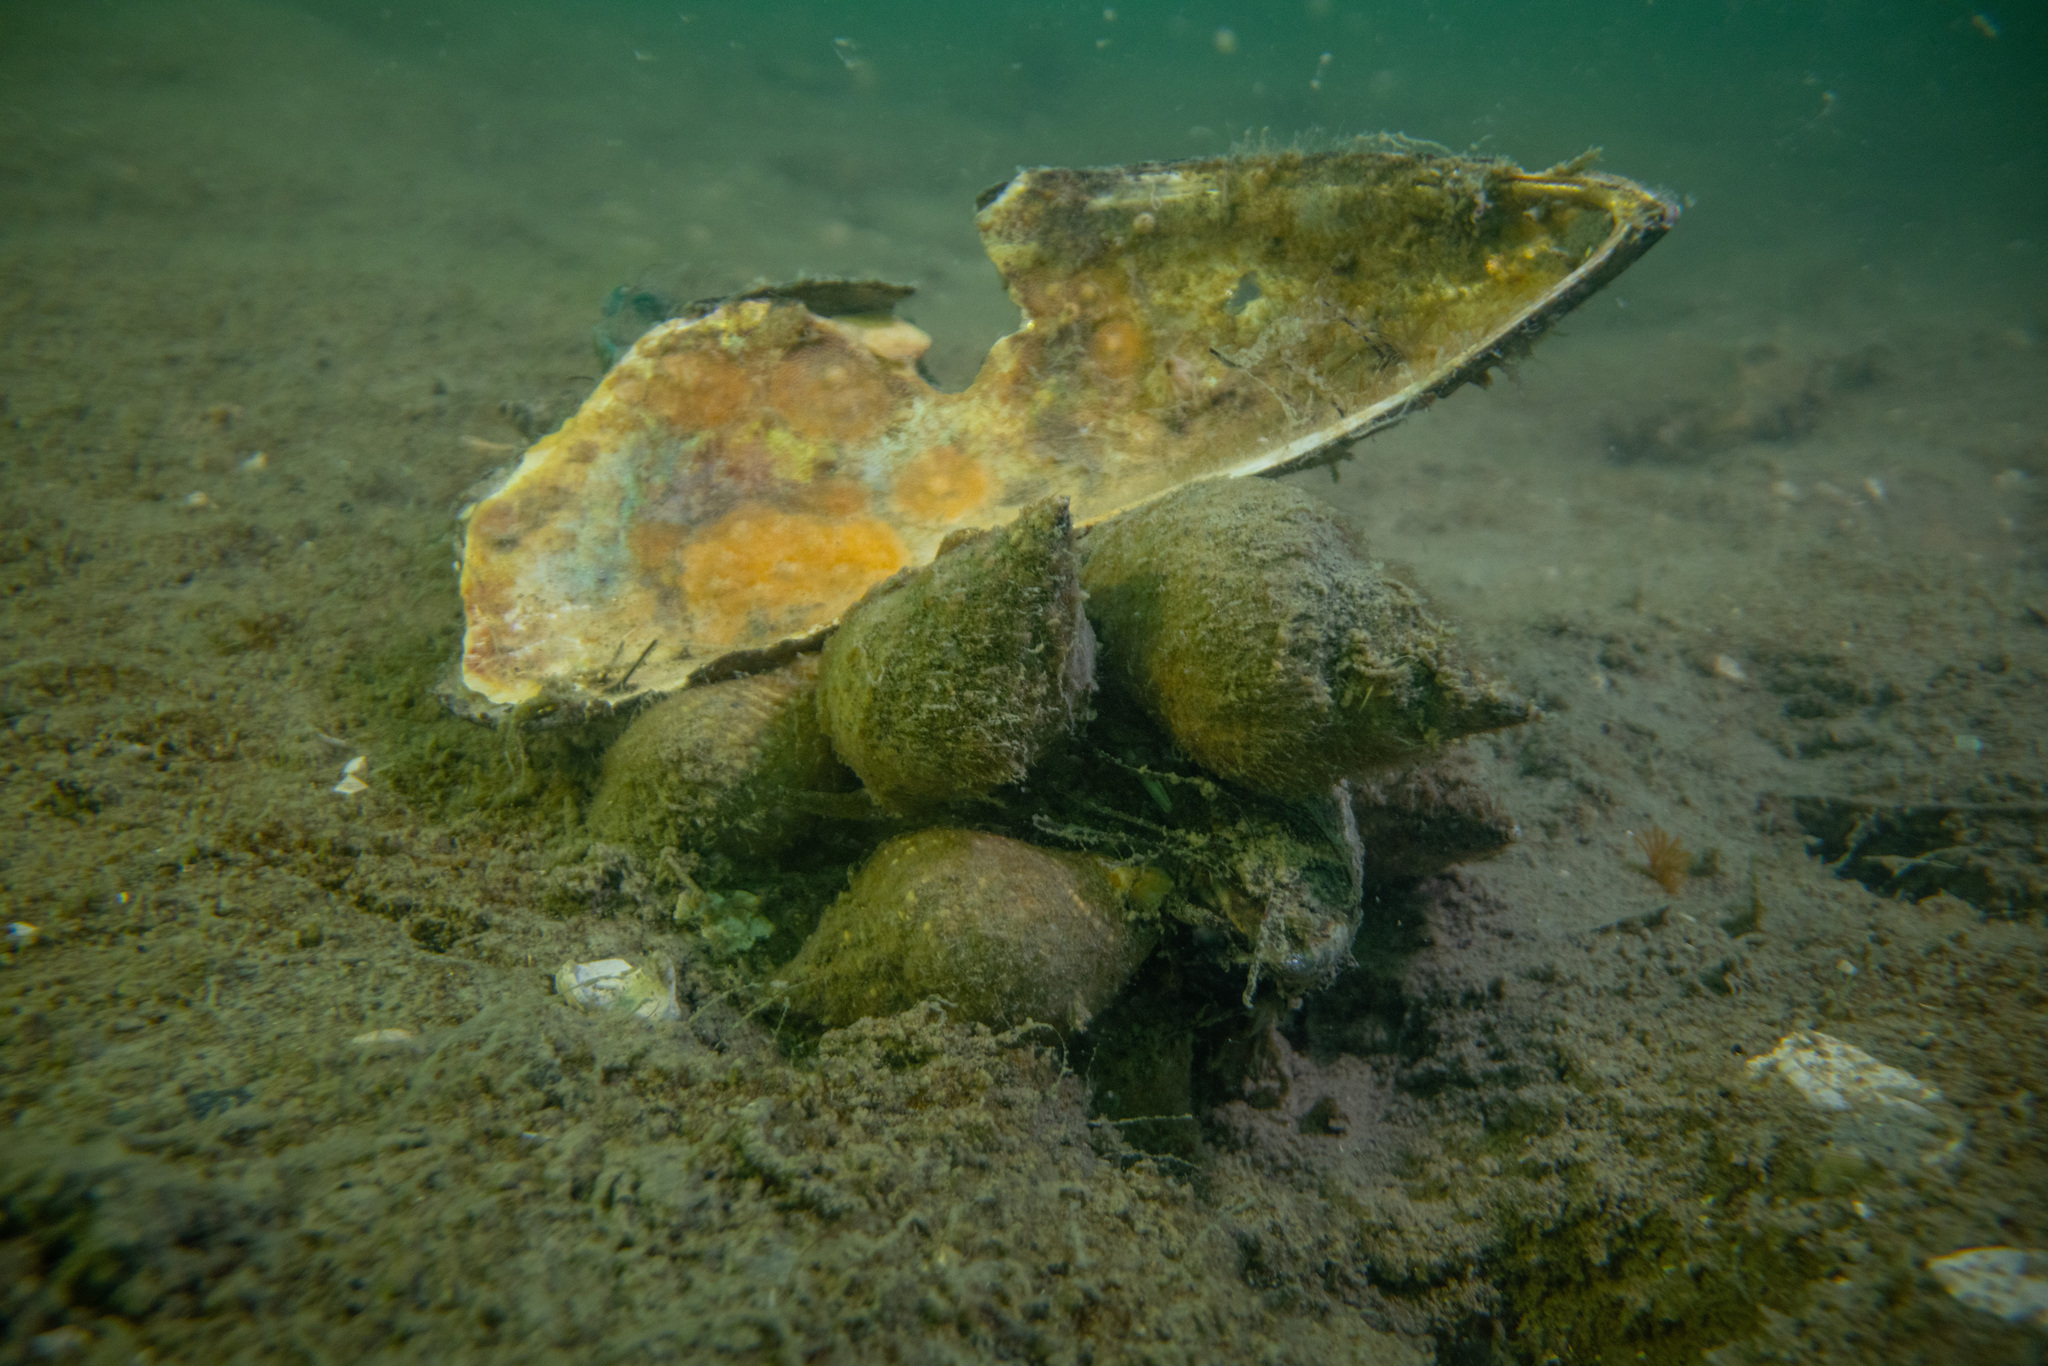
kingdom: Animalia
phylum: Mollusca
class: Gastropoda
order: Neogastropoda
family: Cominellidae
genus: Cominella
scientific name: Cominella adspersa
